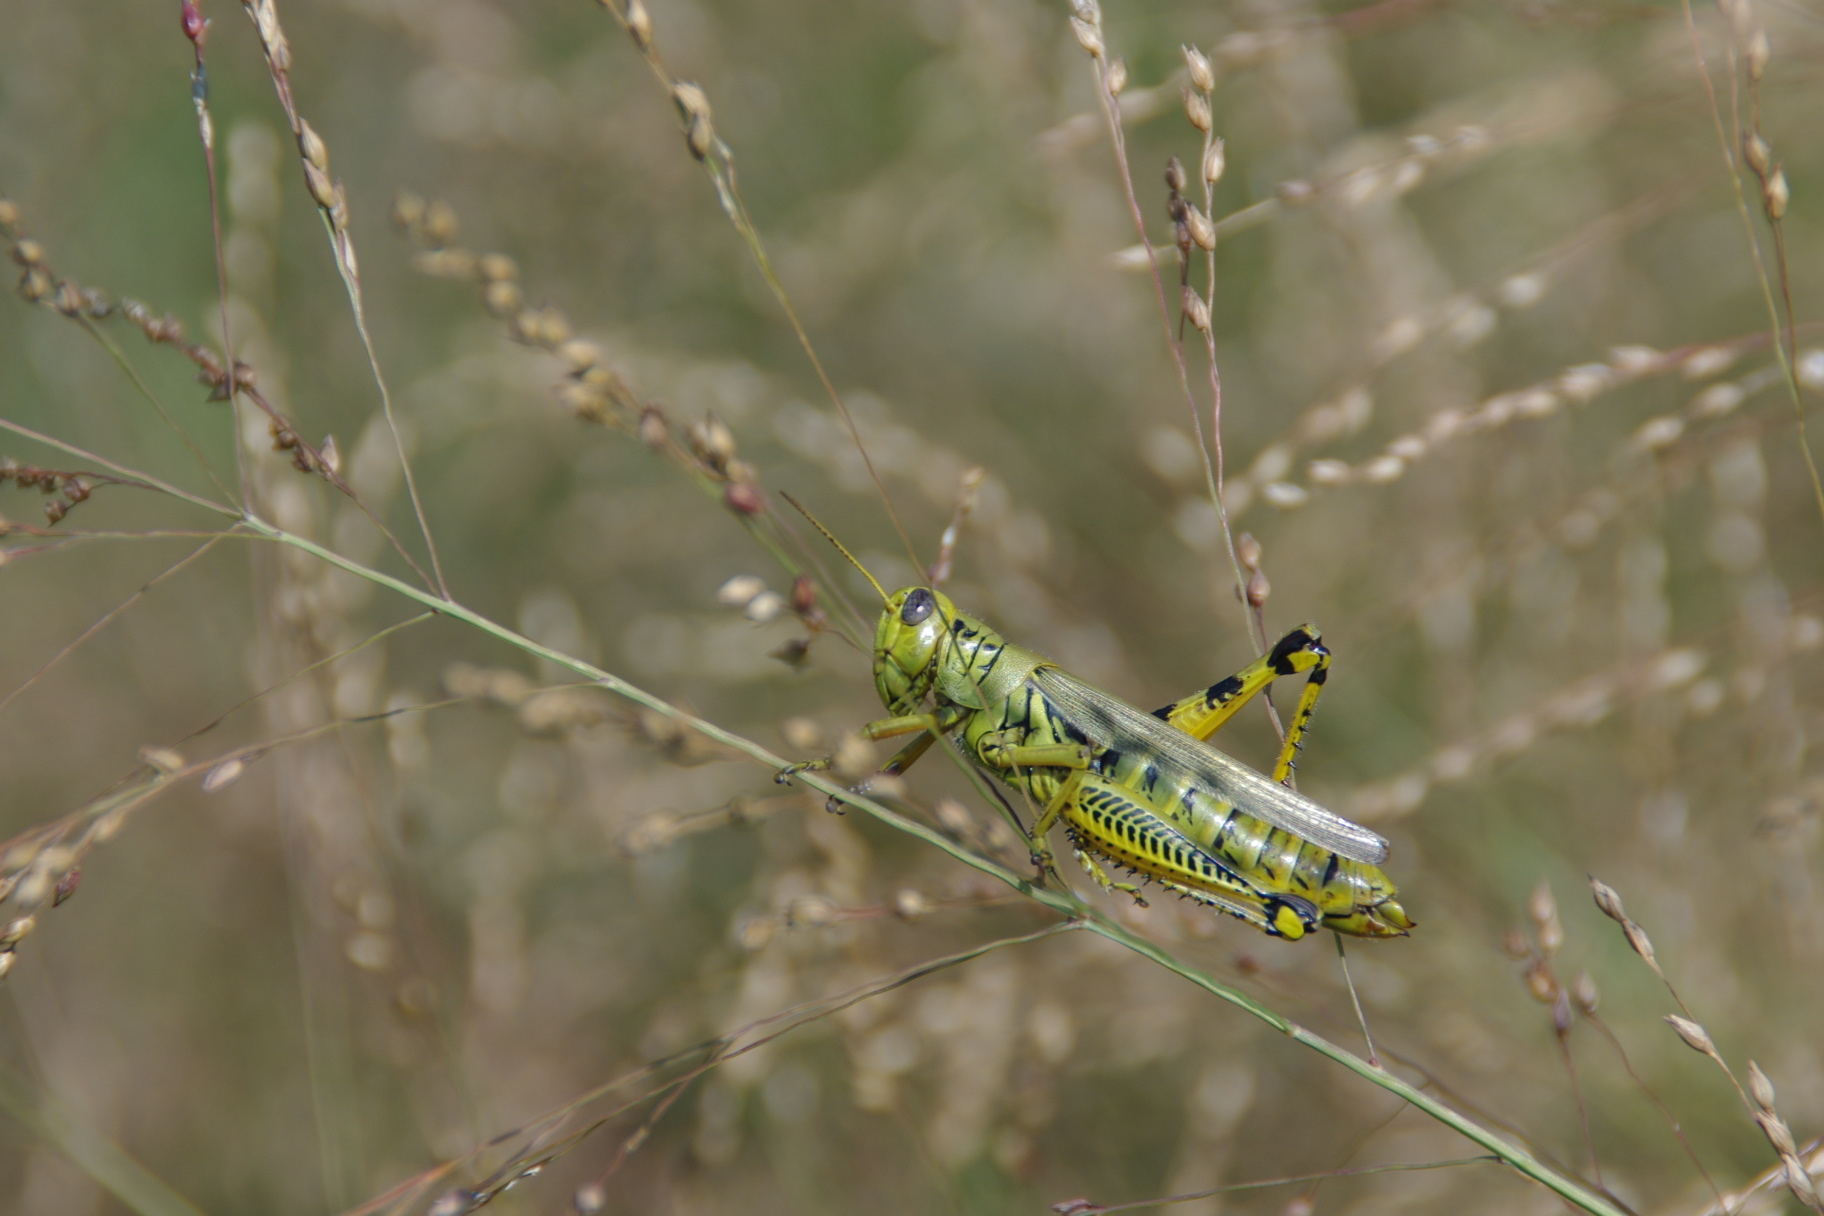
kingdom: Animalia
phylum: Arthropoda
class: Insecta
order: Orthoptera
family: Acrididae
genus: Melanoplus
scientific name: Melanoplus differentialis
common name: Differential grasshopper
